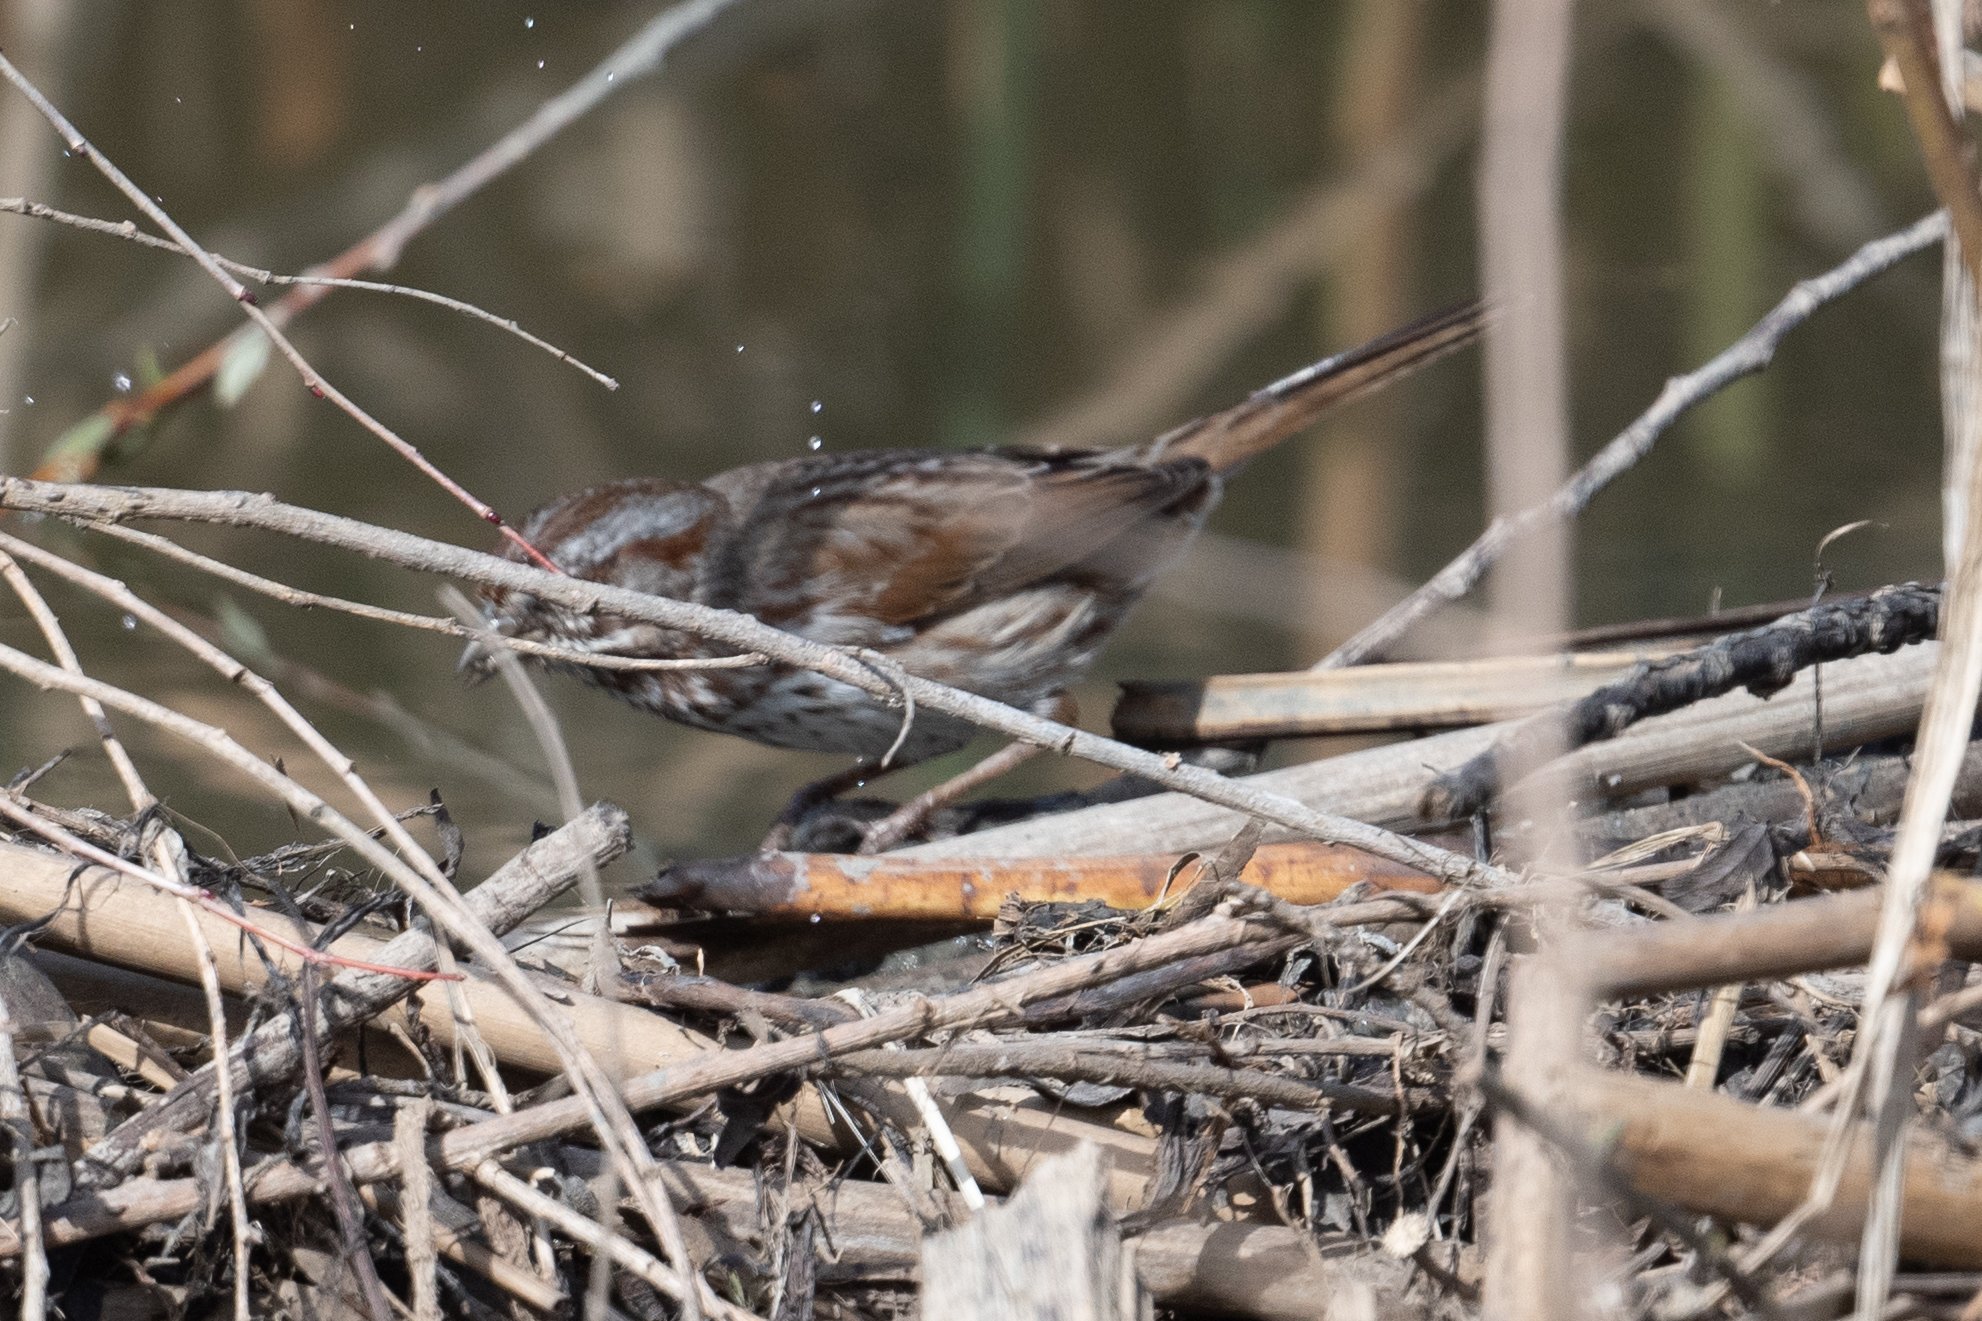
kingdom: Animalia
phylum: Chordata
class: Aves
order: Passeriformes
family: Passerellidae
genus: Melospiza
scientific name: Melospiza melodia
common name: Song sparrow
